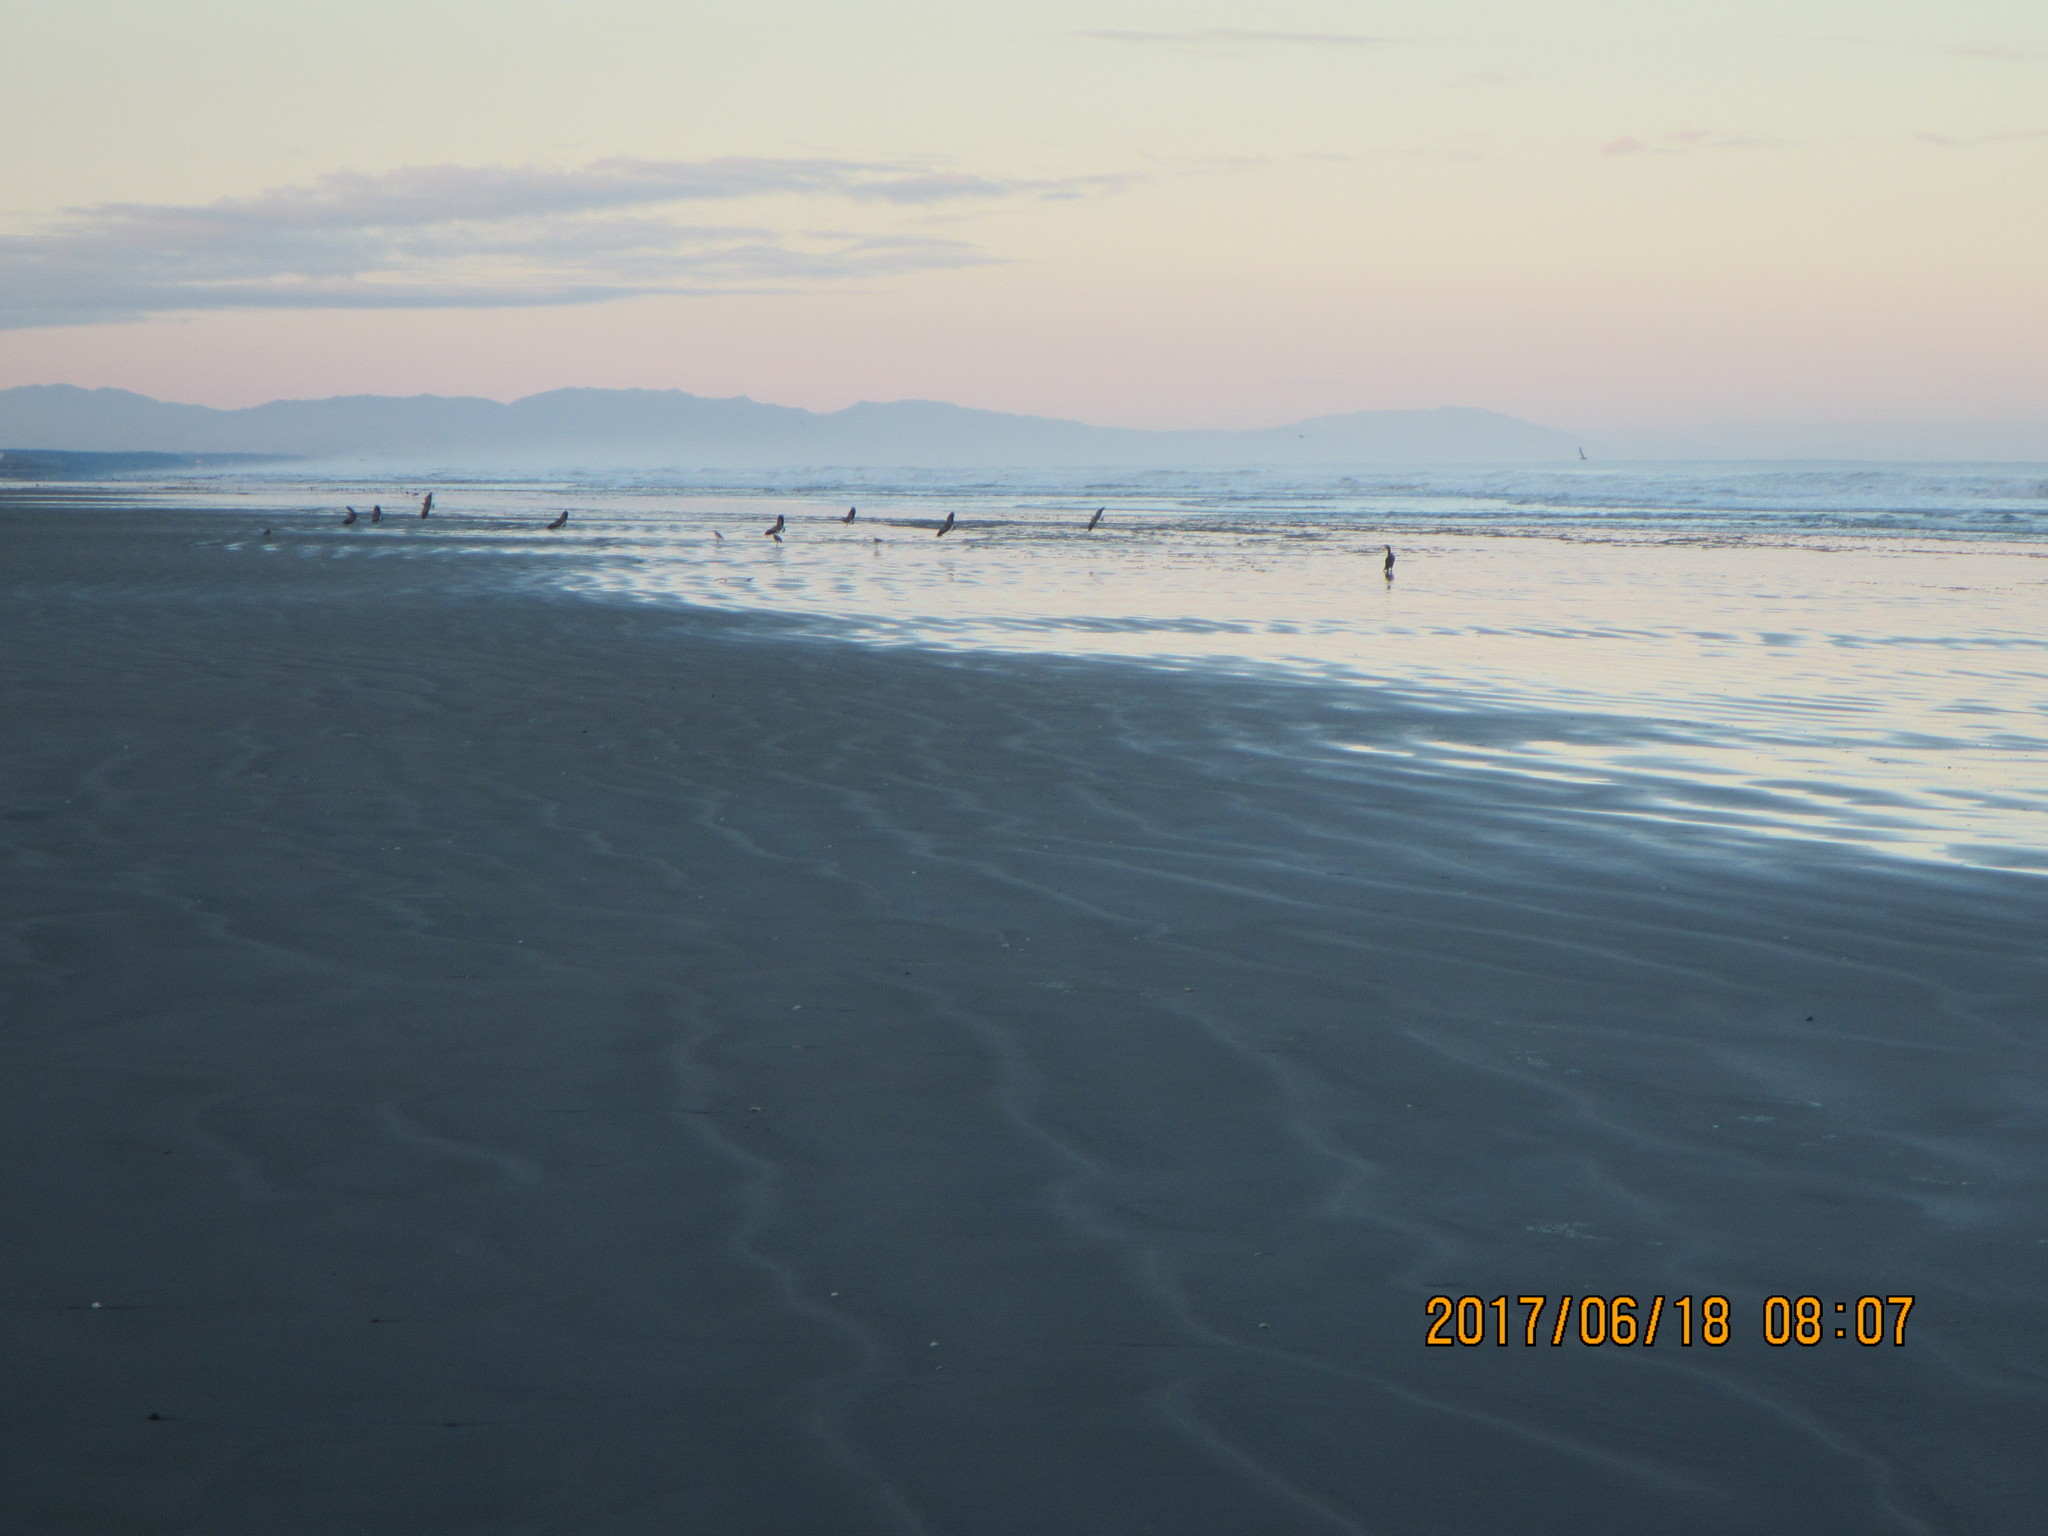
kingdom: Animalia
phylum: Chordata
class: Aves
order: Charadriiformes
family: Charadriidae
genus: Vanellus
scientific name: Vanellus miles
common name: Masked lapwing
